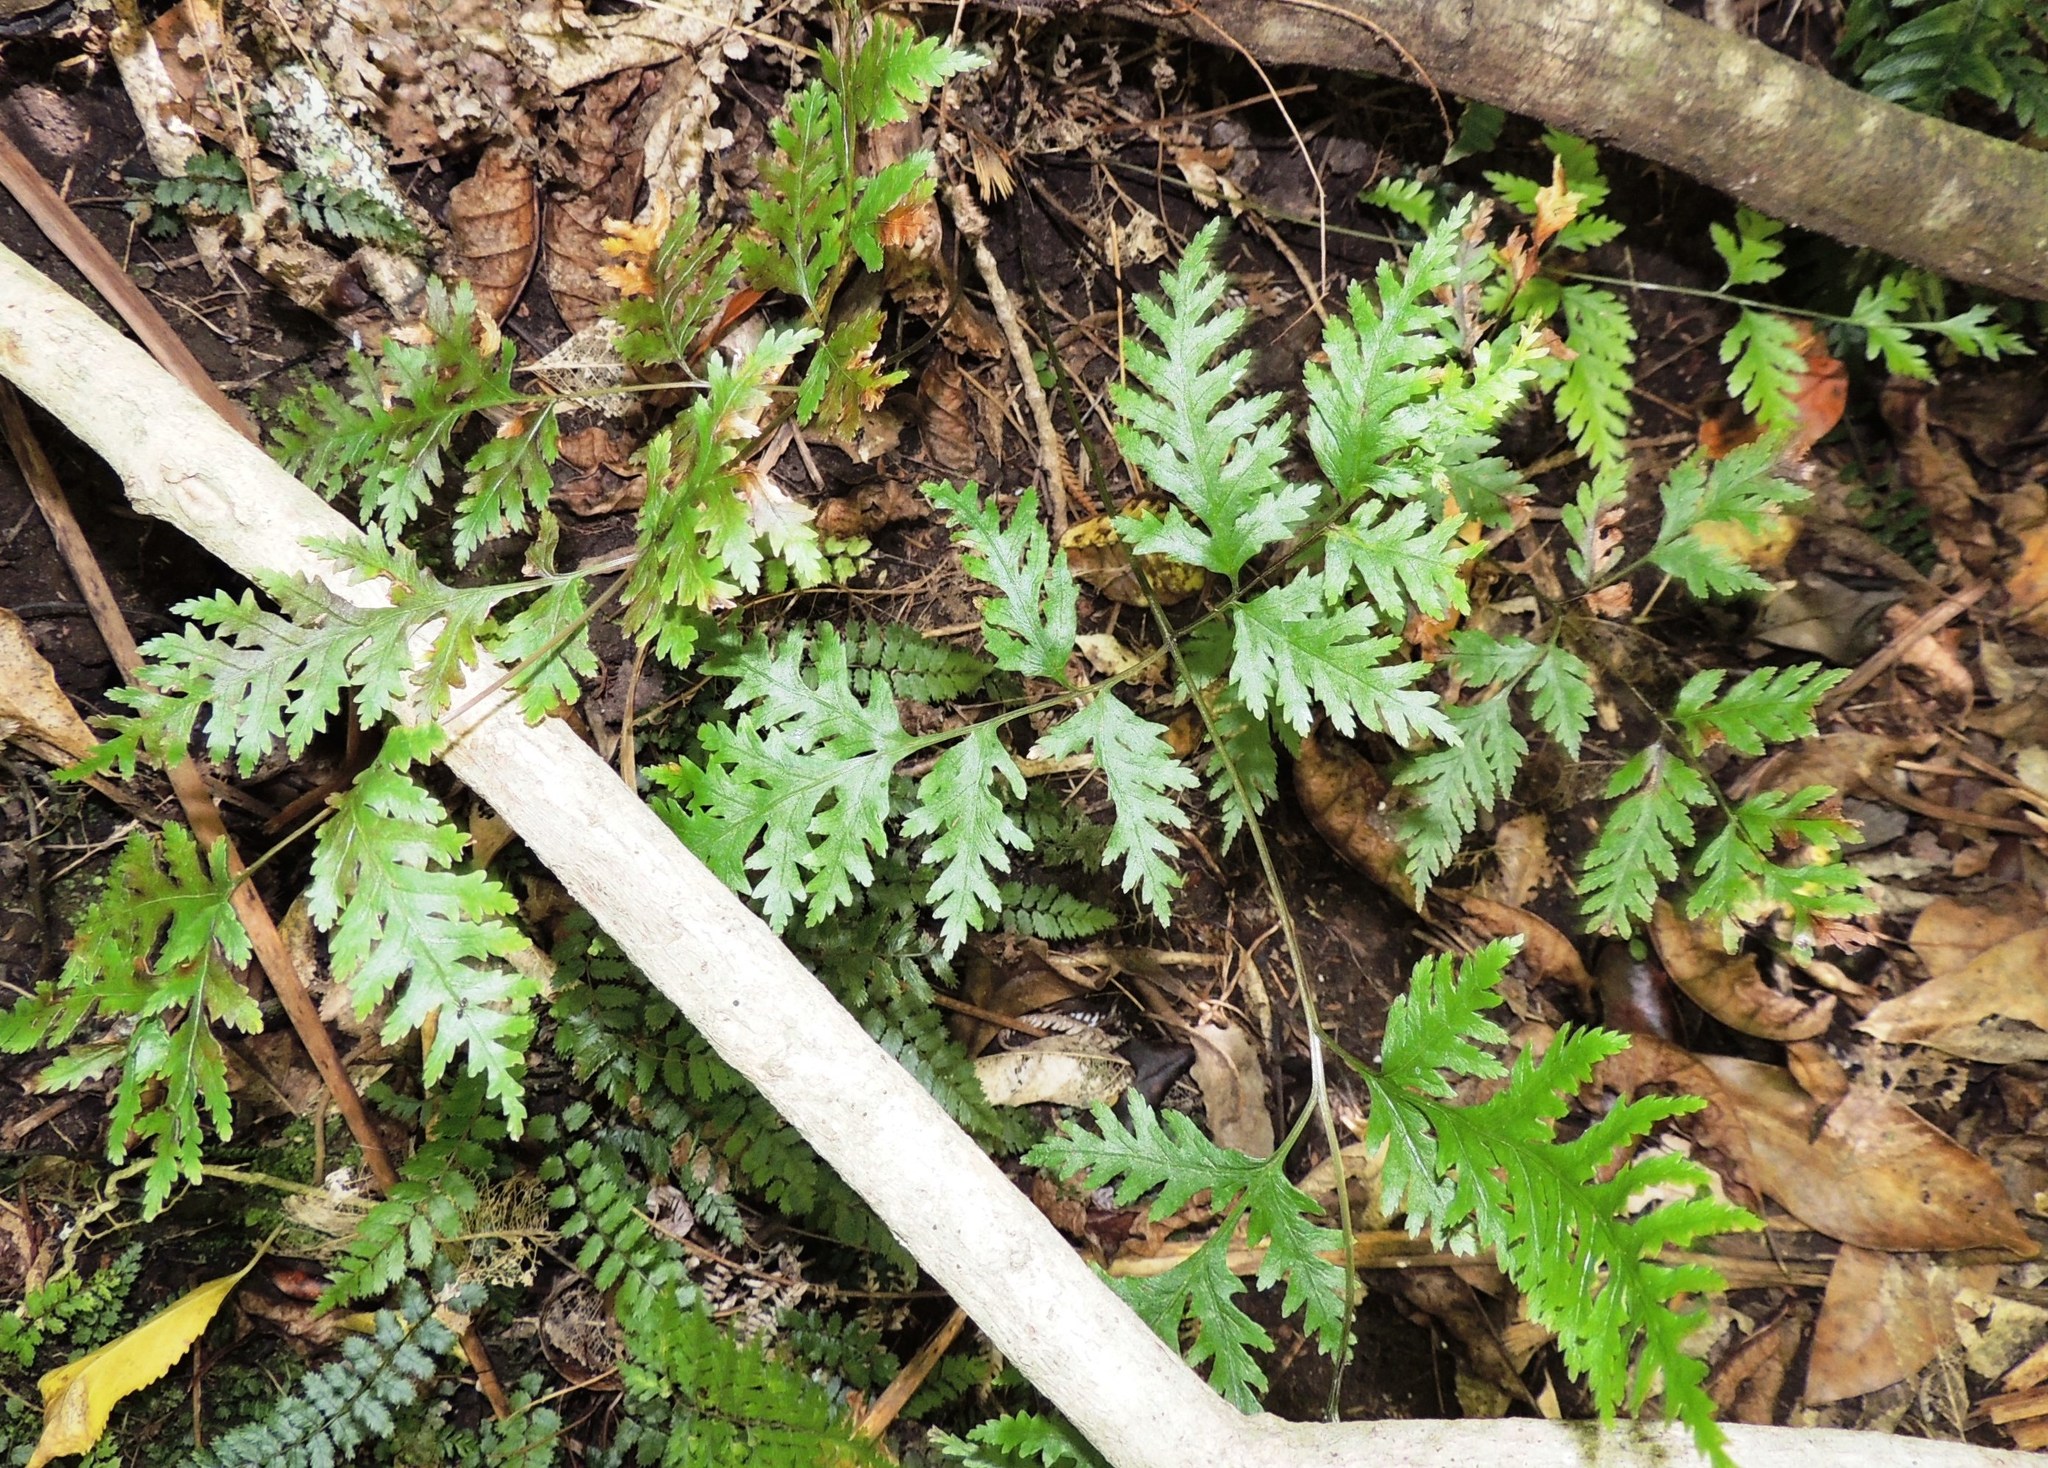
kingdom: Plantae
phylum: Tracheophyta
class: Polypodiopsida
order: Polypodiales
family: Pteridaceae
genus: Pteris
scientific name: Pteris macilenta
